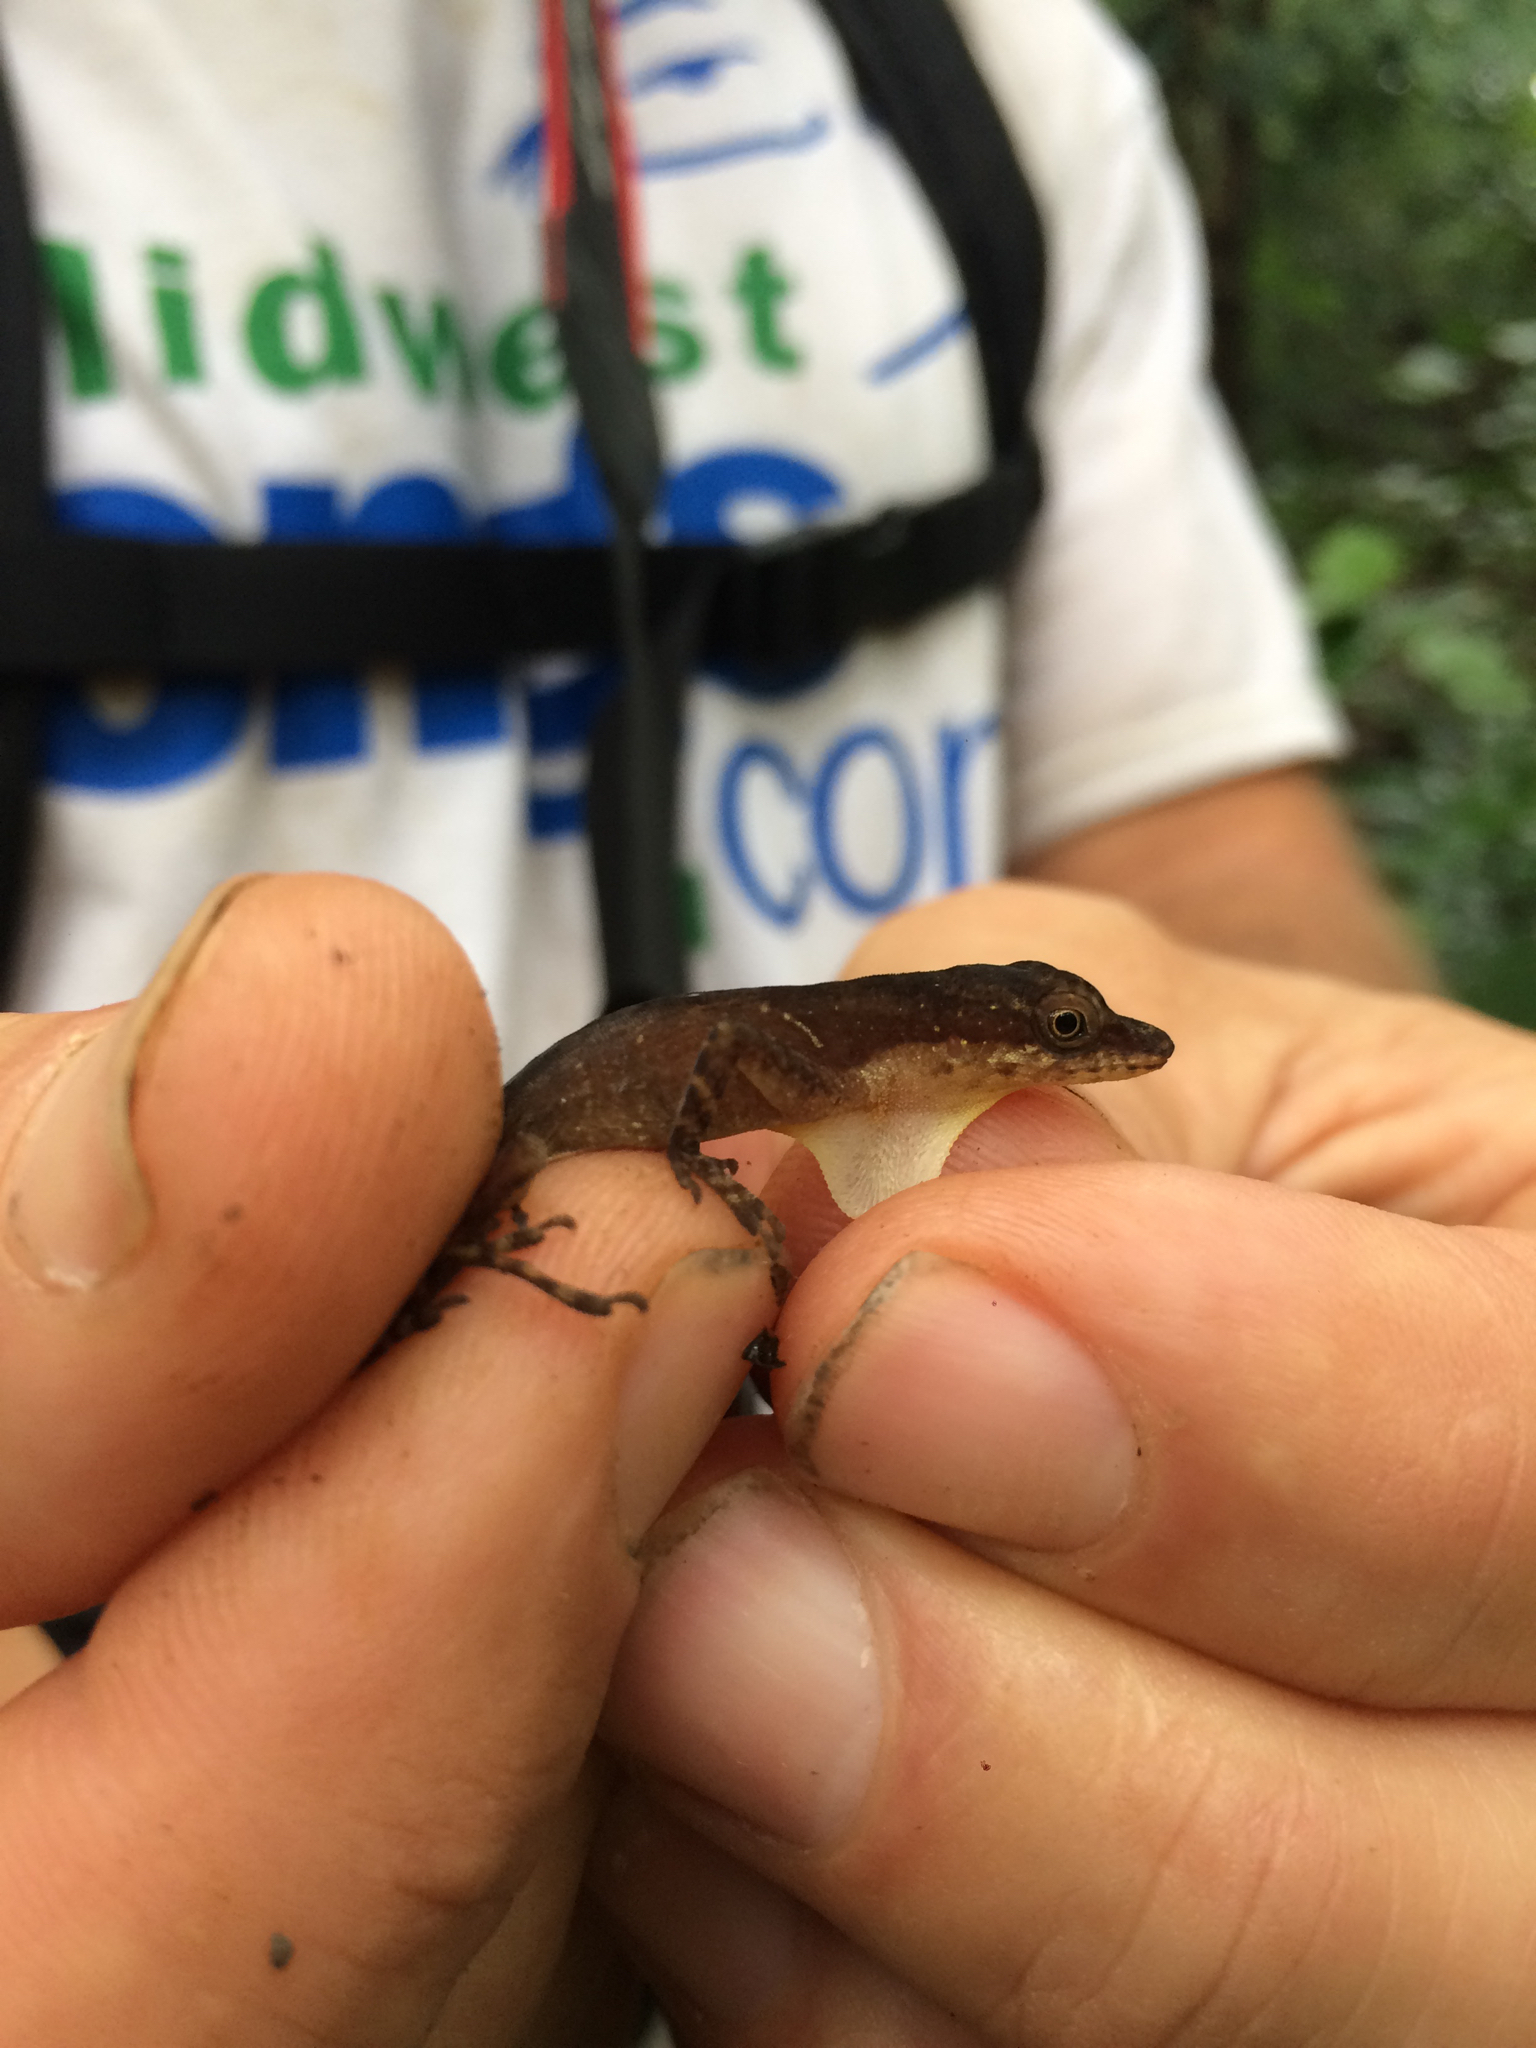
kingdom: Animalia
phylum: Chordata
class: Squamata
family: Dactyloidae
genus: Anolis
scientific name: Anolis limifrons
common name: Border anole
